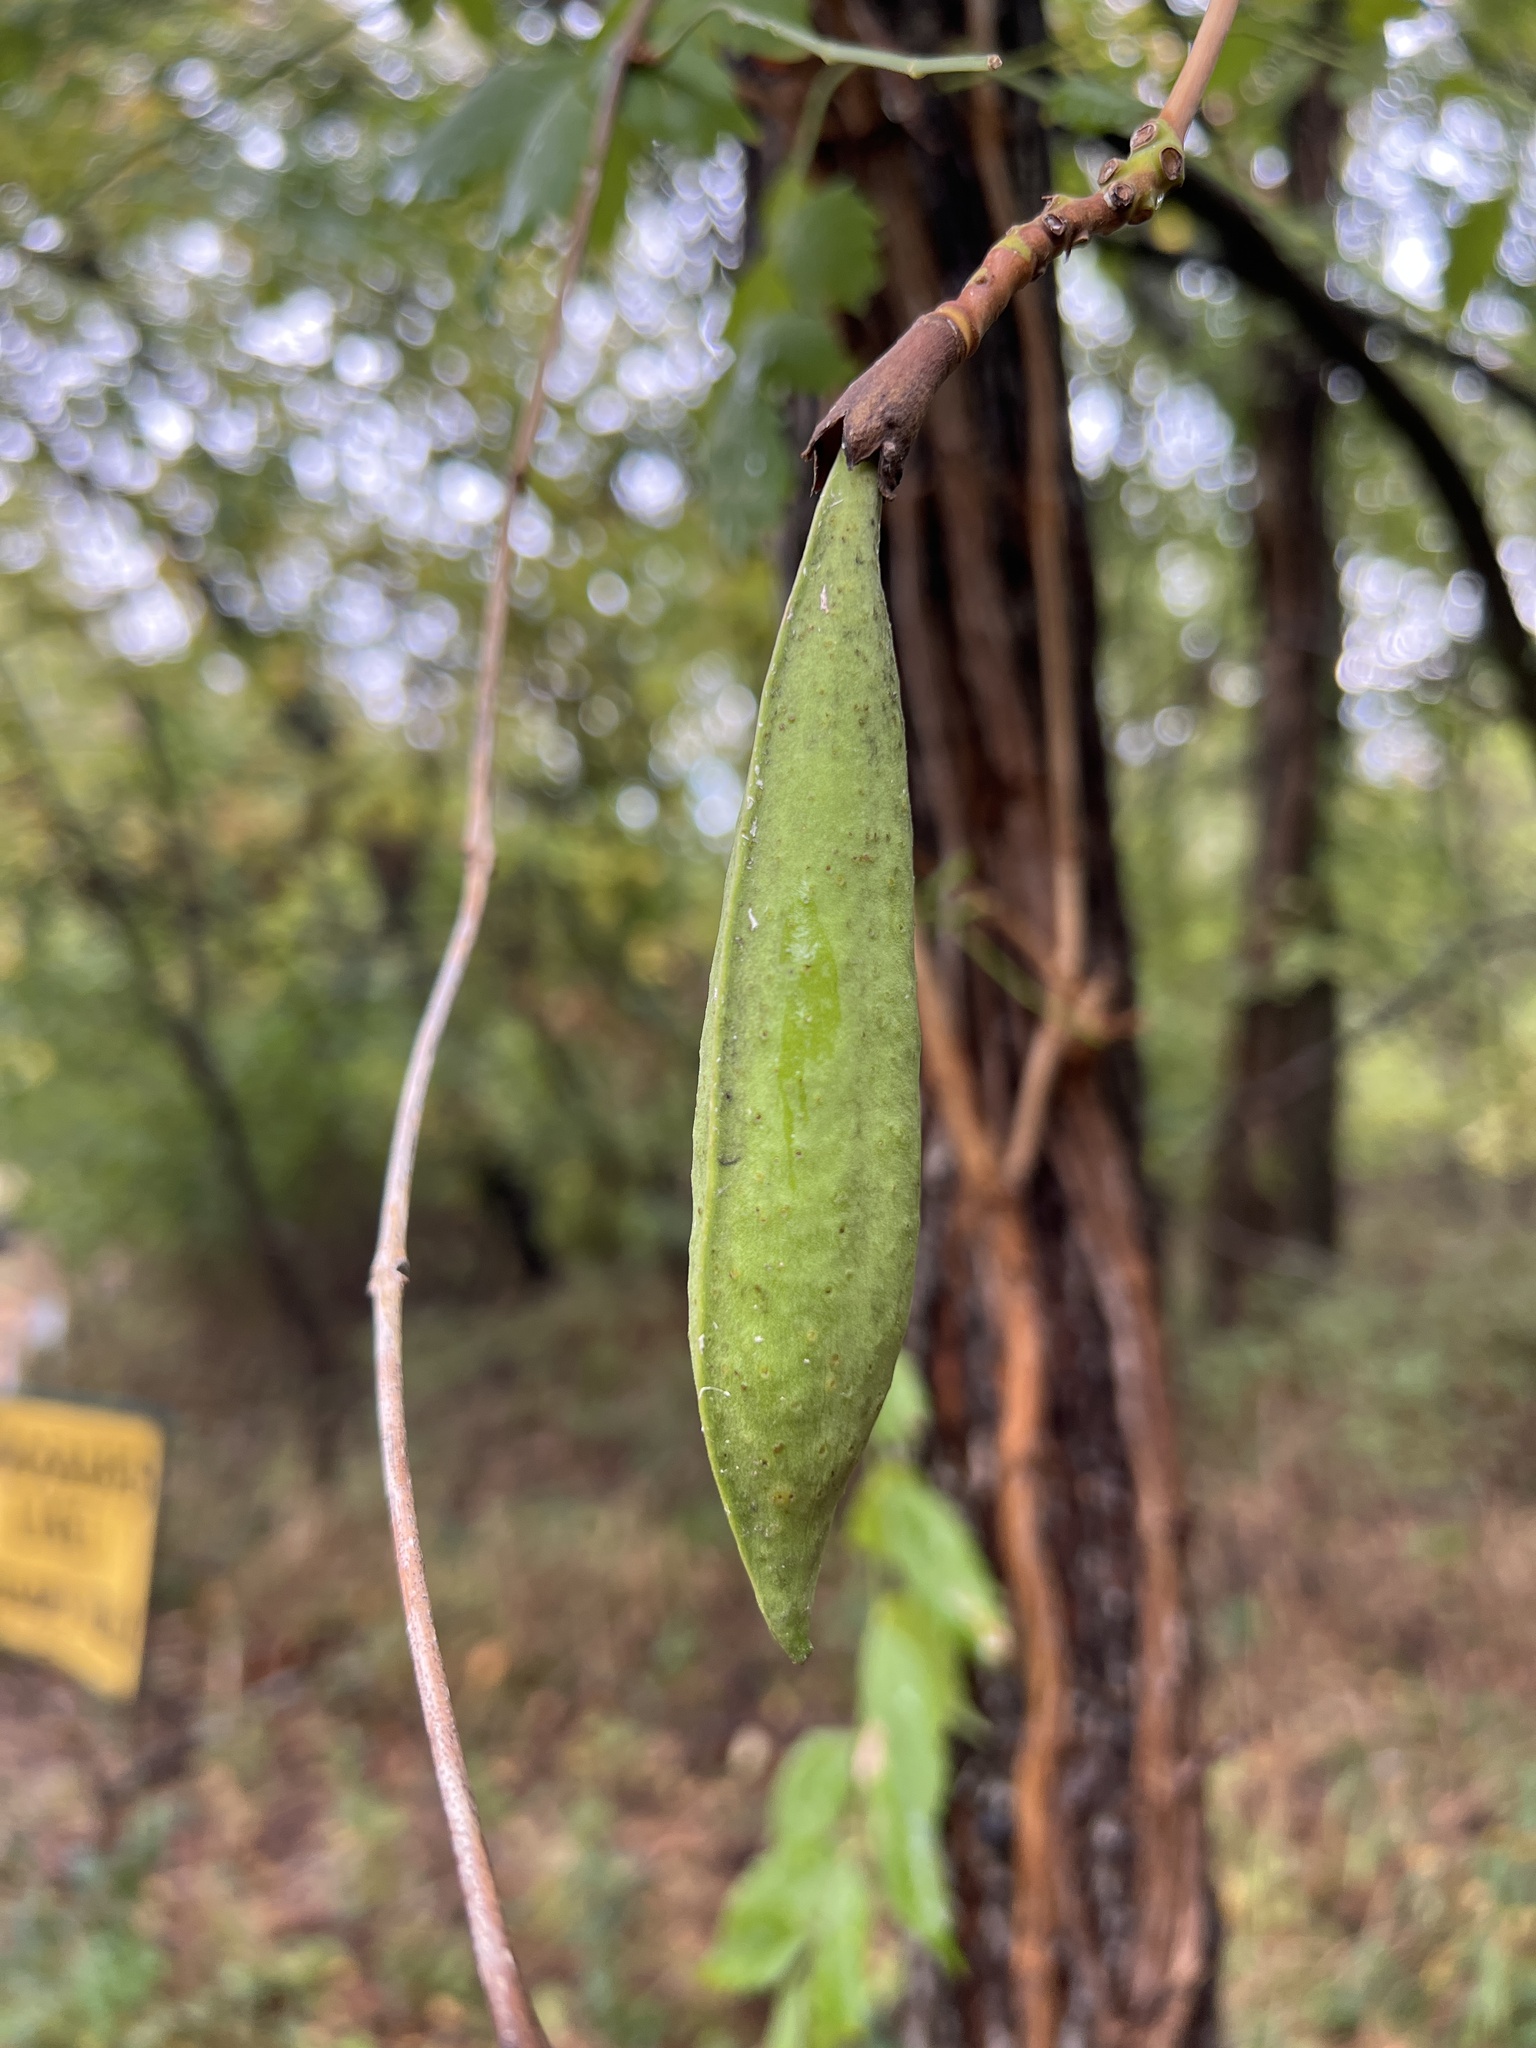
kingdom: Plantae
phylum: Tracheophyta
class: Magnoliopsida
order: Lamiales
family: Bignoniaceae
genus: Campsis
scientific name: Campsis radicans
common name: Trumpet-creeper
